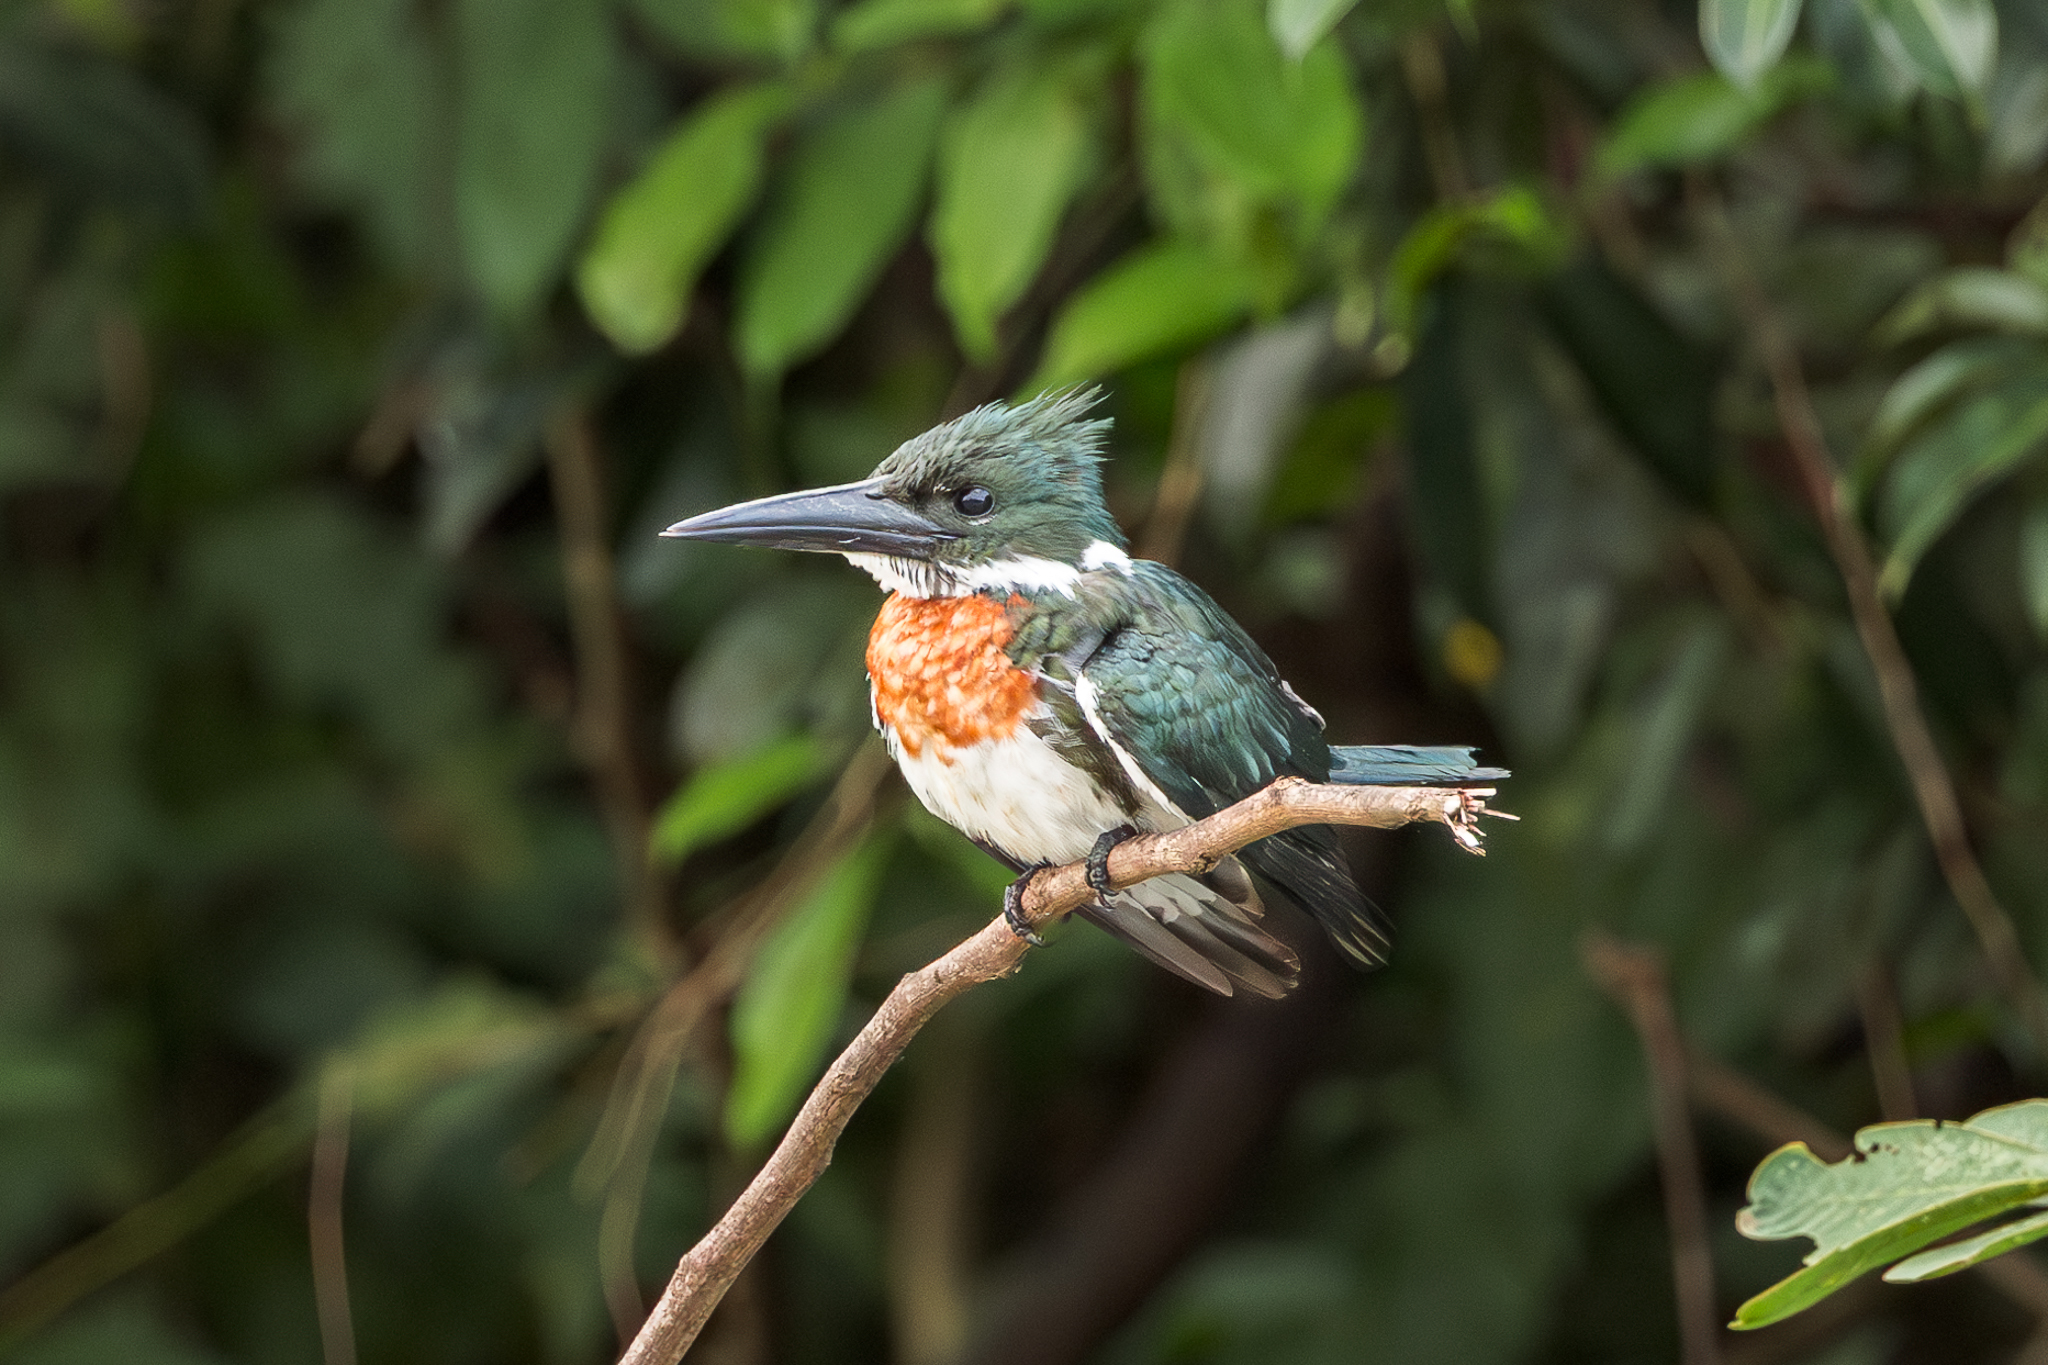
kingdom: Animalia
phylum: Chordata
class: Aves
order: Coraciiformes
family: Alcedinidae
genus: Chloroceryle
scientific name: Chloroceryle amazona
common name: Amazon kingfisher
